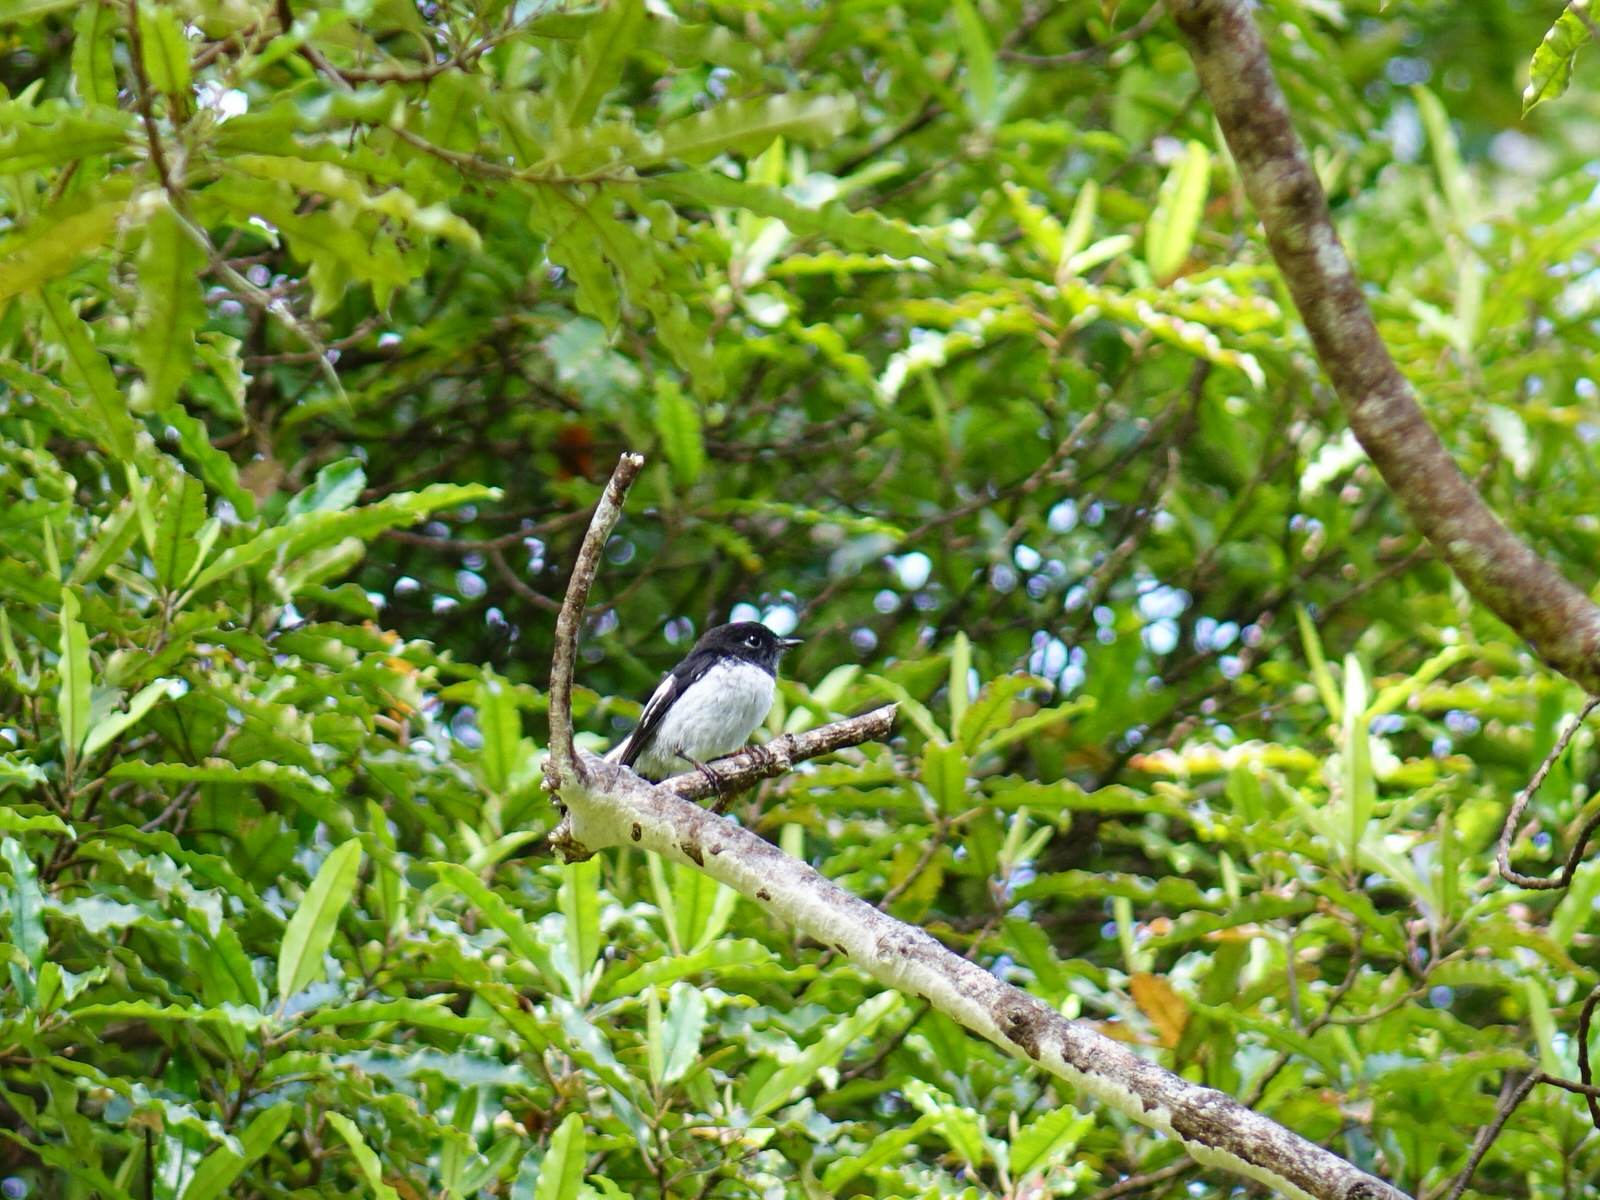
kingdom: Animalia
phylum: Chordata
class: Aves
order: Passeriformes
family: Petroicidae
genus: Petroica
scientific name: Petroica macrocephala
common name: Tomtit
